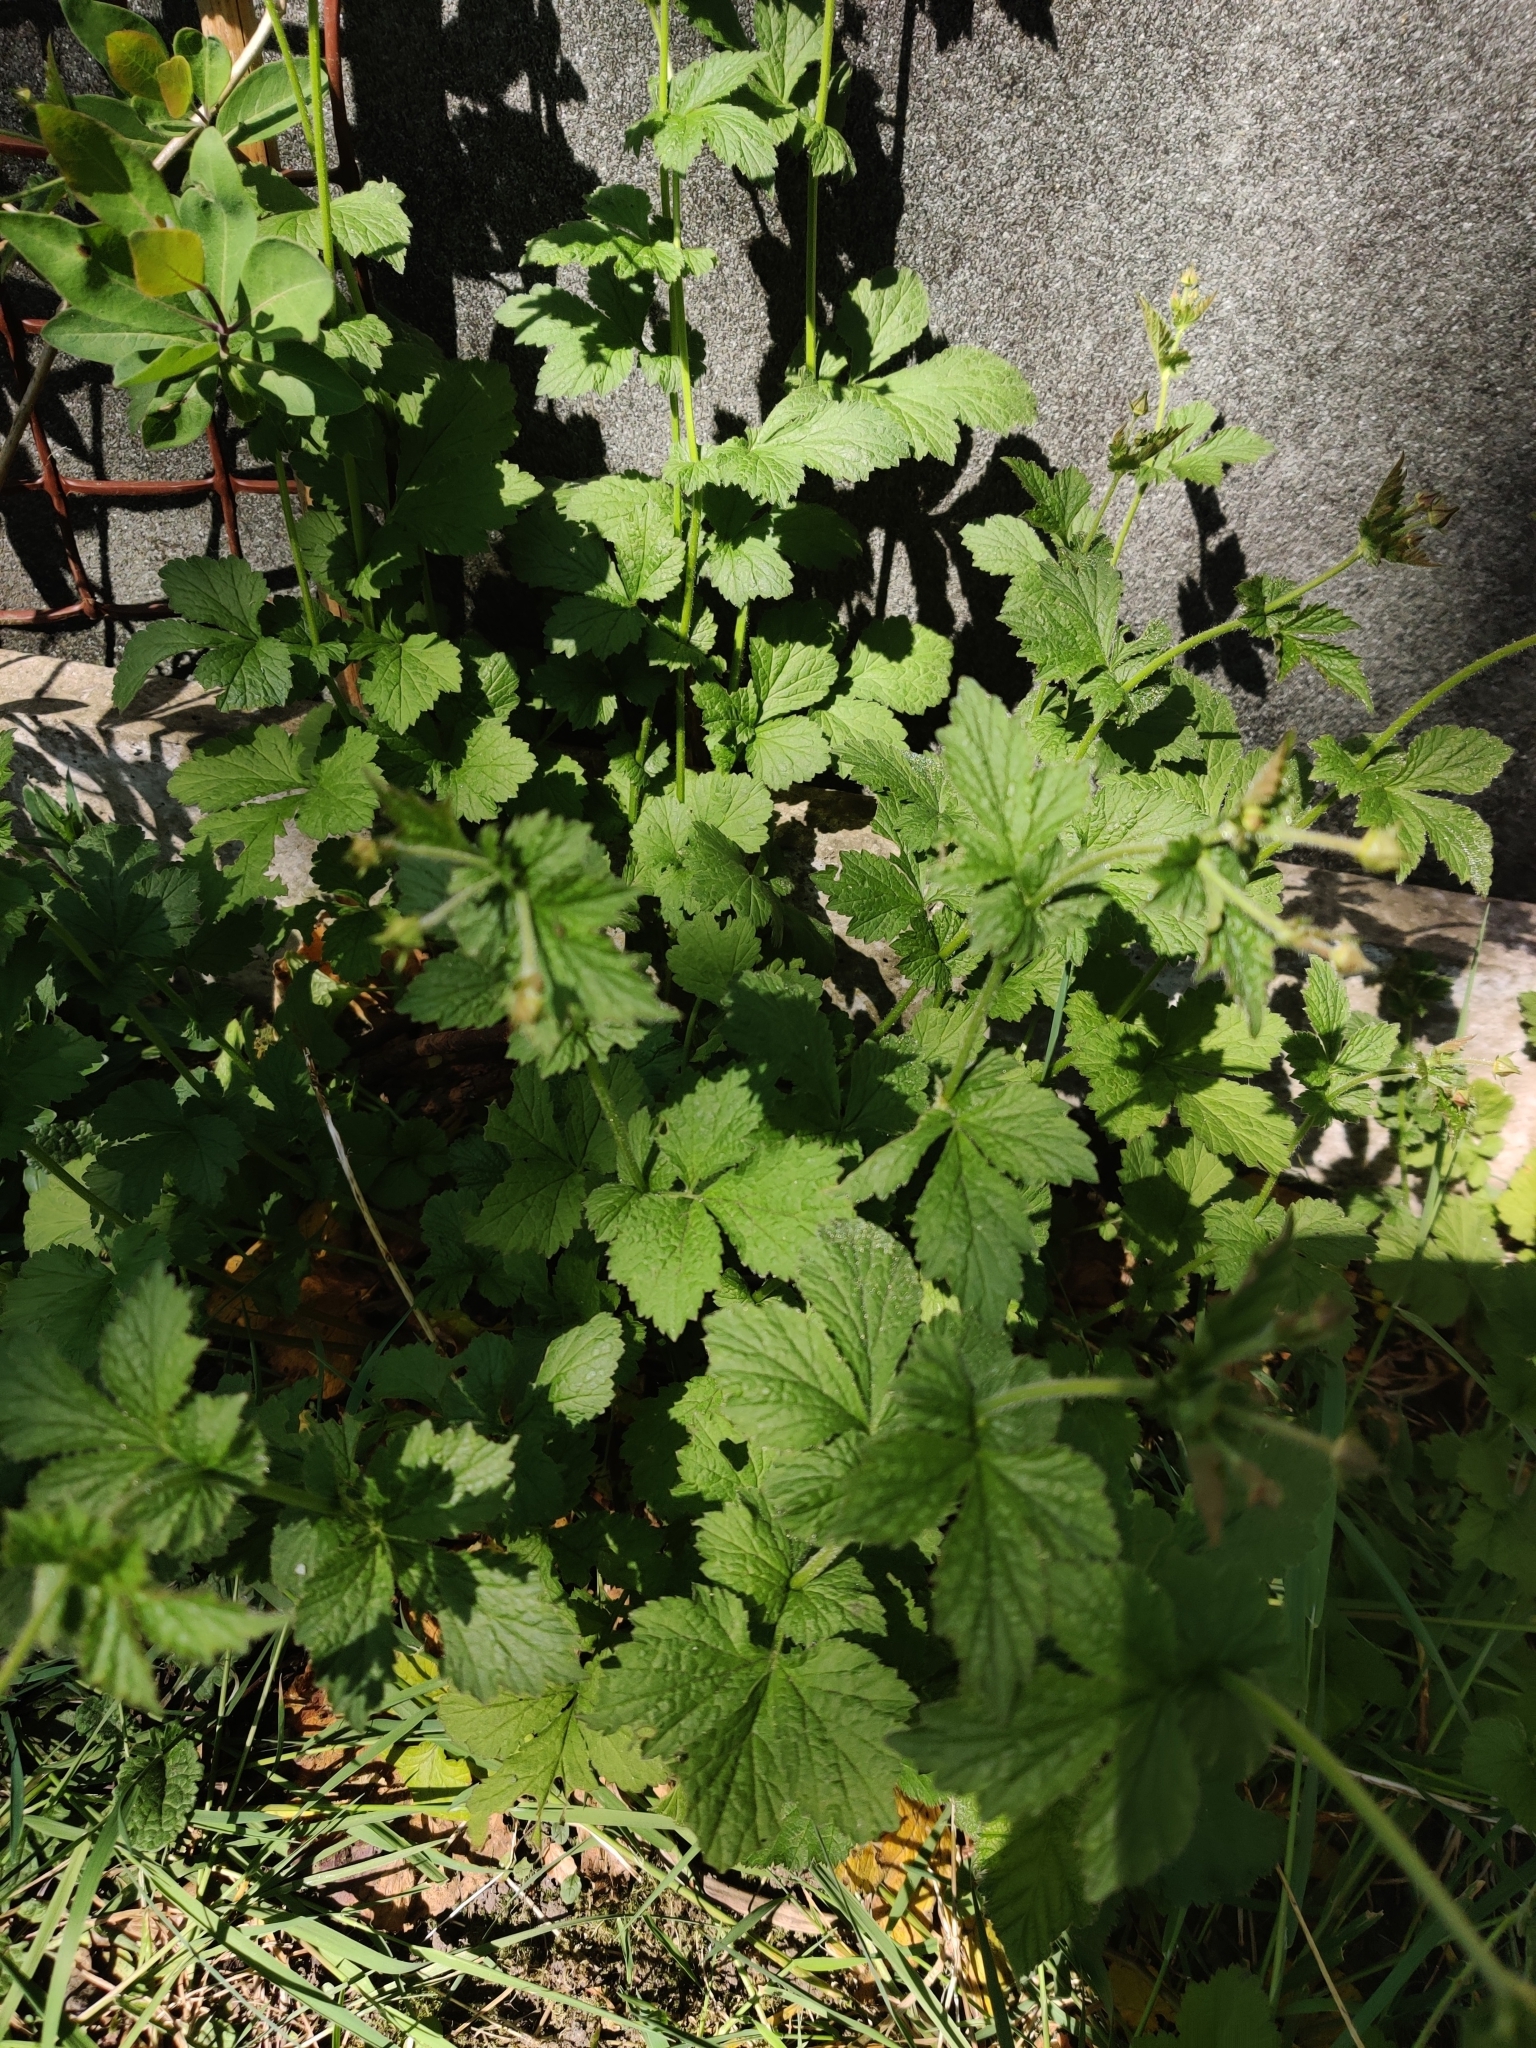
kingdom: Plantae
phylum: Tracheophyta
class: Magnoliopsida
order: Rosales
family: Rosaceae
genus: Geum
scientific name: Geum urbanum
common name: Wood avens
